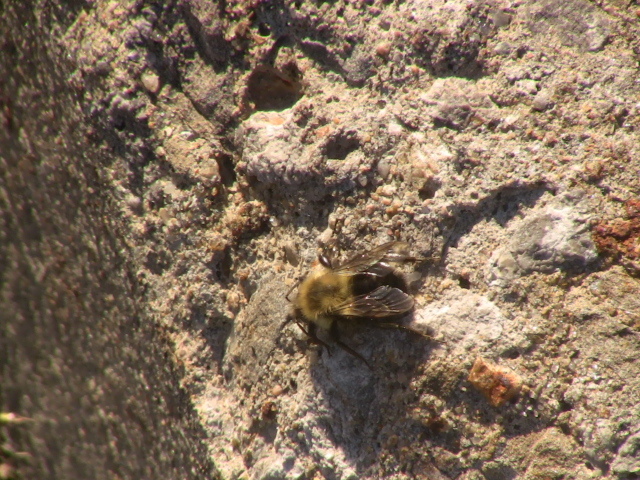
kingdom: Animalia
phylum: Arthropoda
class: Insecta
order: Hymenoptera
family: Apidae
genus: Bombus
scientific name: Bombus impatiens
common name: Common eastern bumble bee
